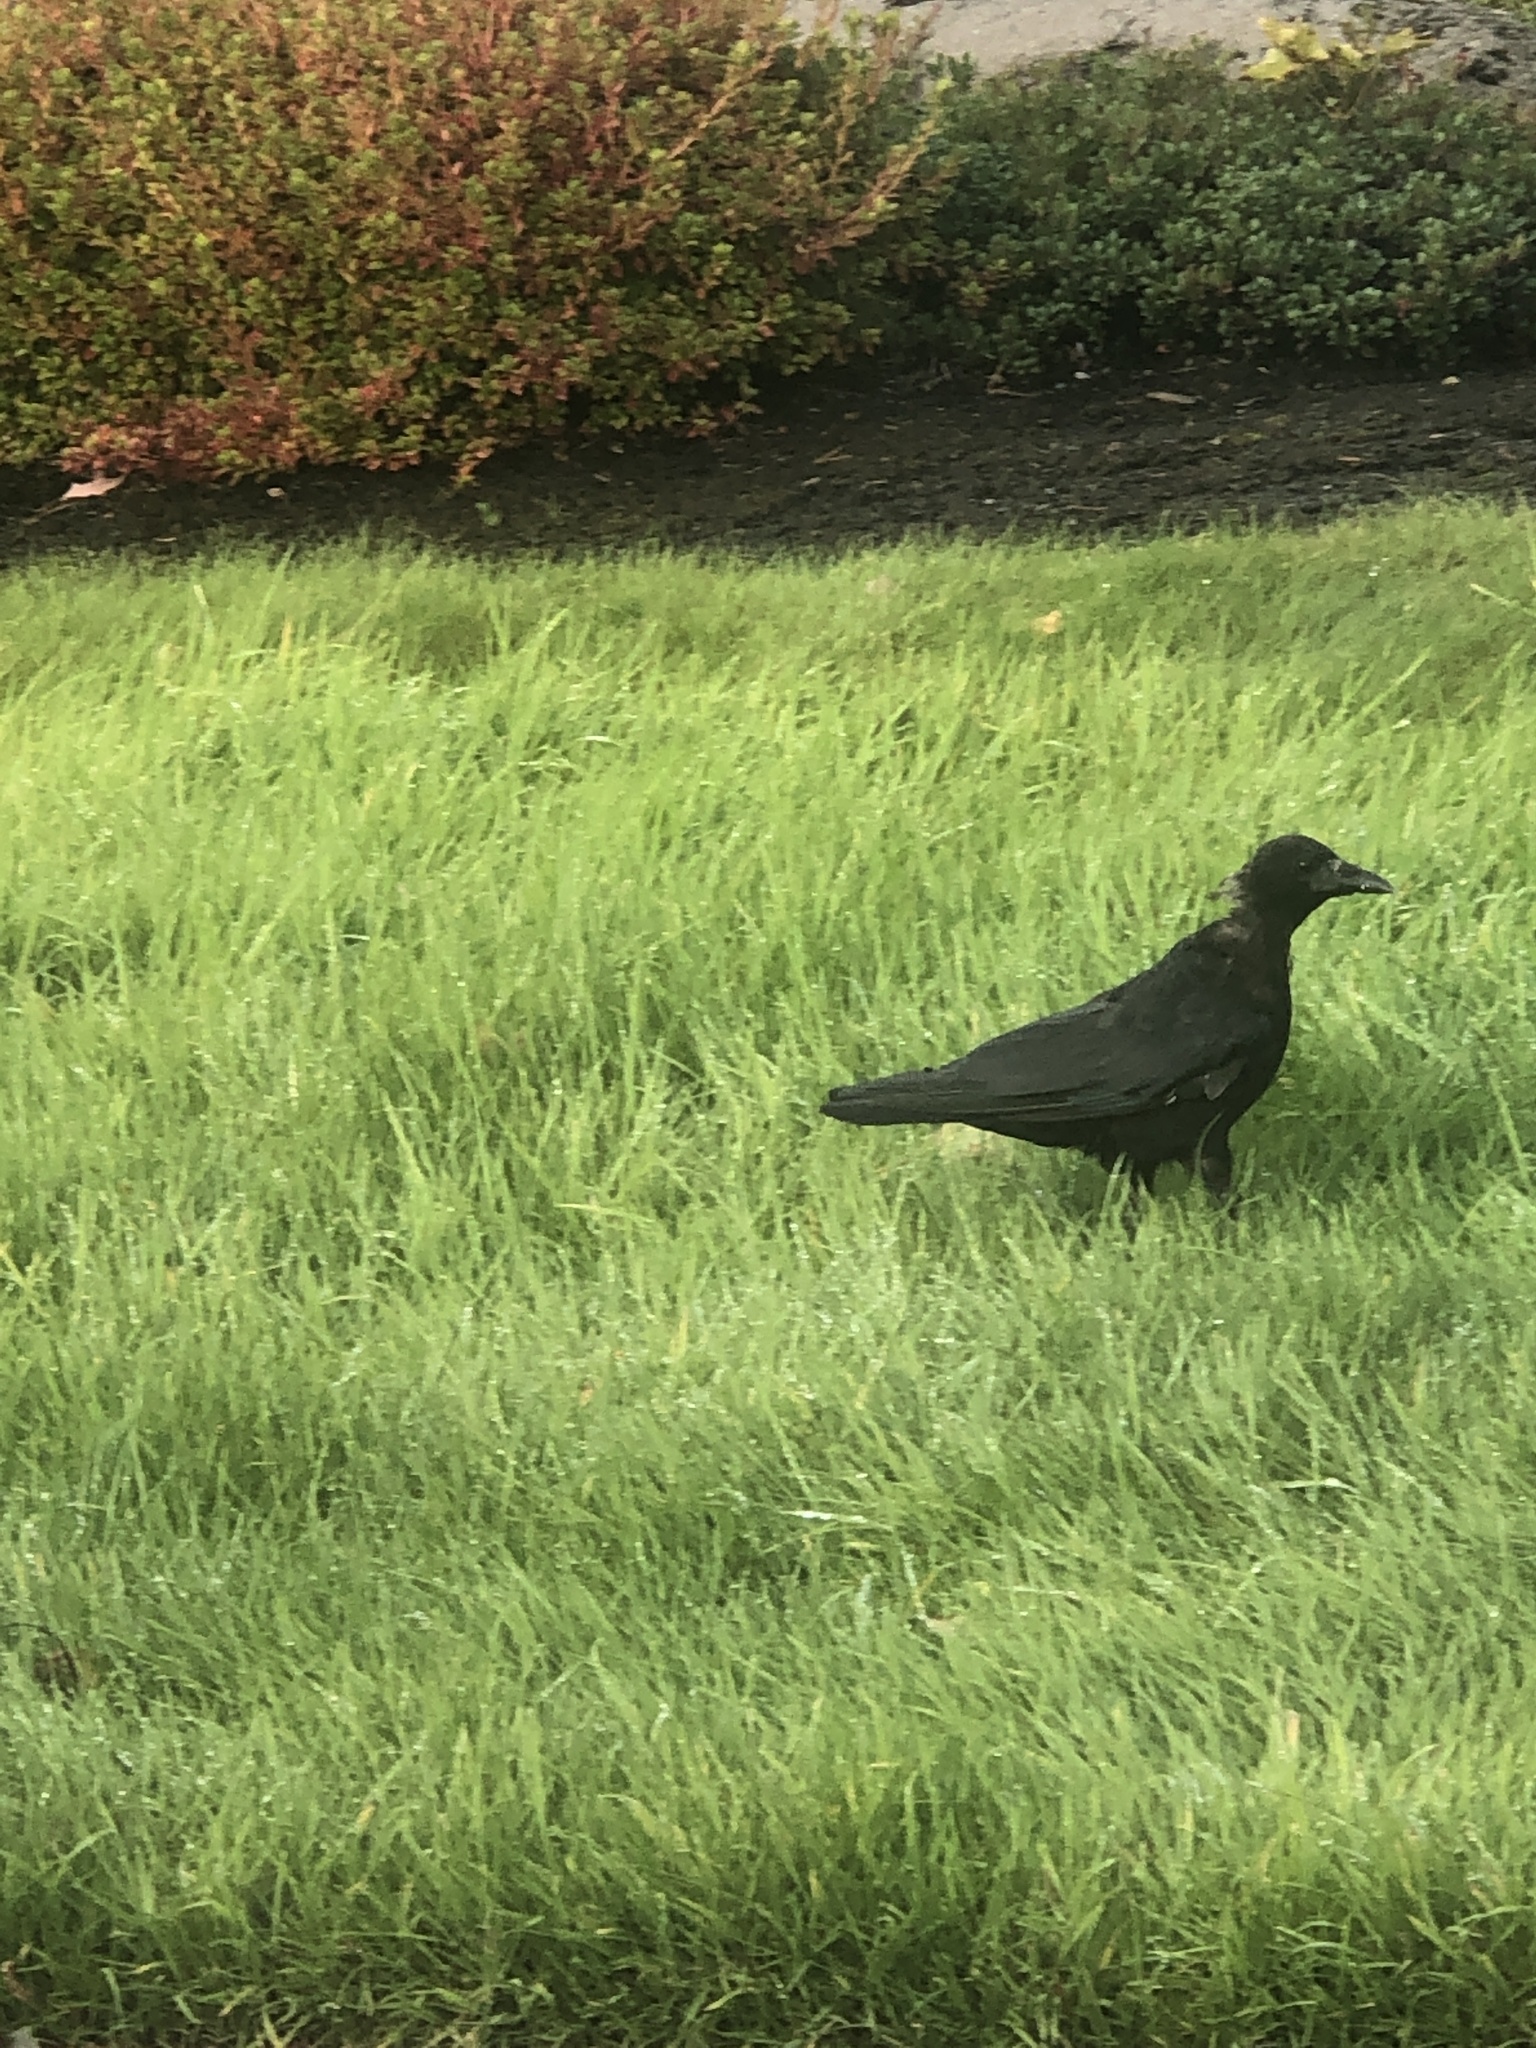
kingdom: Animalia
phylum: Chordata
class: Aves
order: Passeriformes
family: Corvidae
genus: Corvus
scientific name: Corvus brachyrhynchos
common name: American crow
